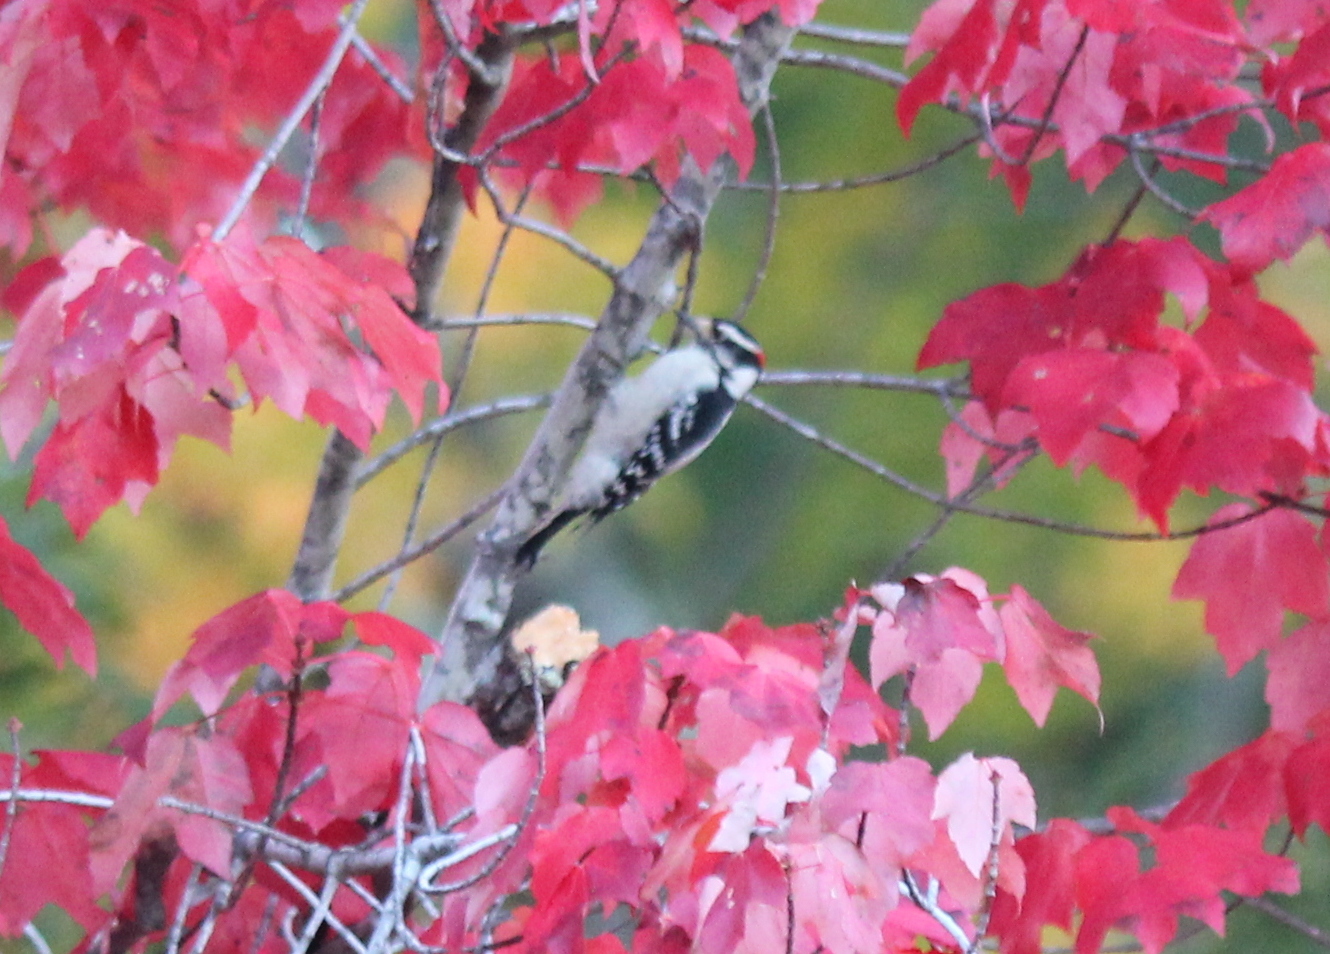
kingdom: Animalia
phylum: Chordata
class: Aves
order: Piciformes
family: Picidae
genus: Dryobates
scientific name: Dryobates pubescens
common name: Downy woodpecker
